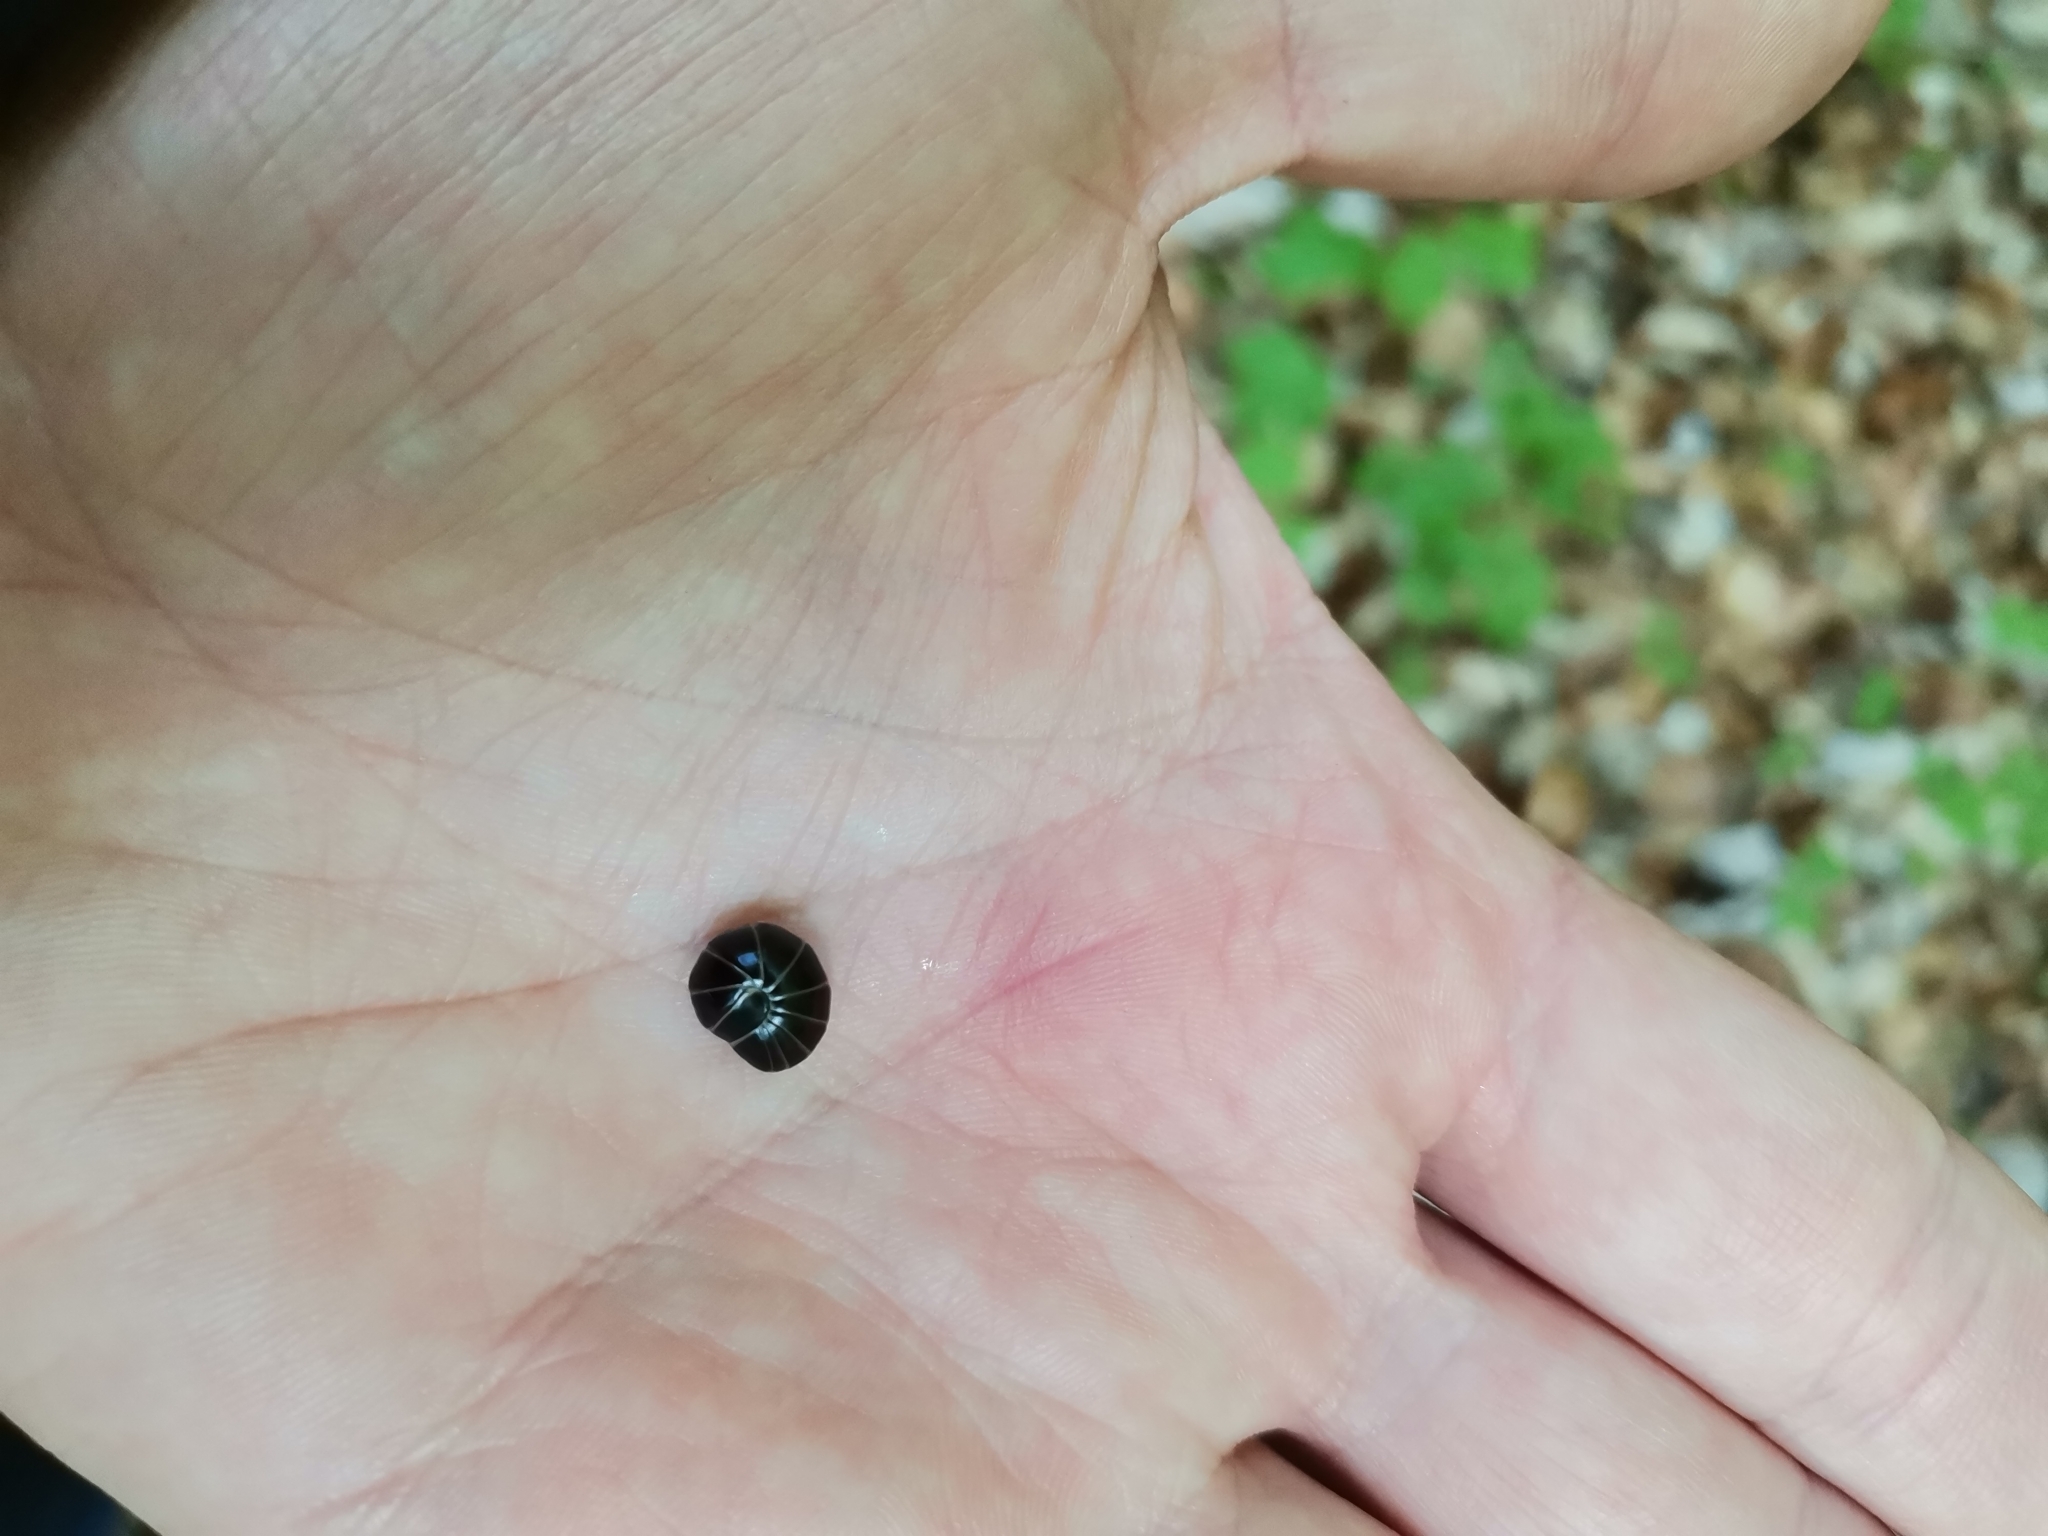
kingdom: Animalia
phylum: Arthropoda
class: Diplopoda
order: Glomerida
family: Glomeridae
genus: Glomeris
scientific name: Glomeris marginata
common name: Bordered pill millipede
